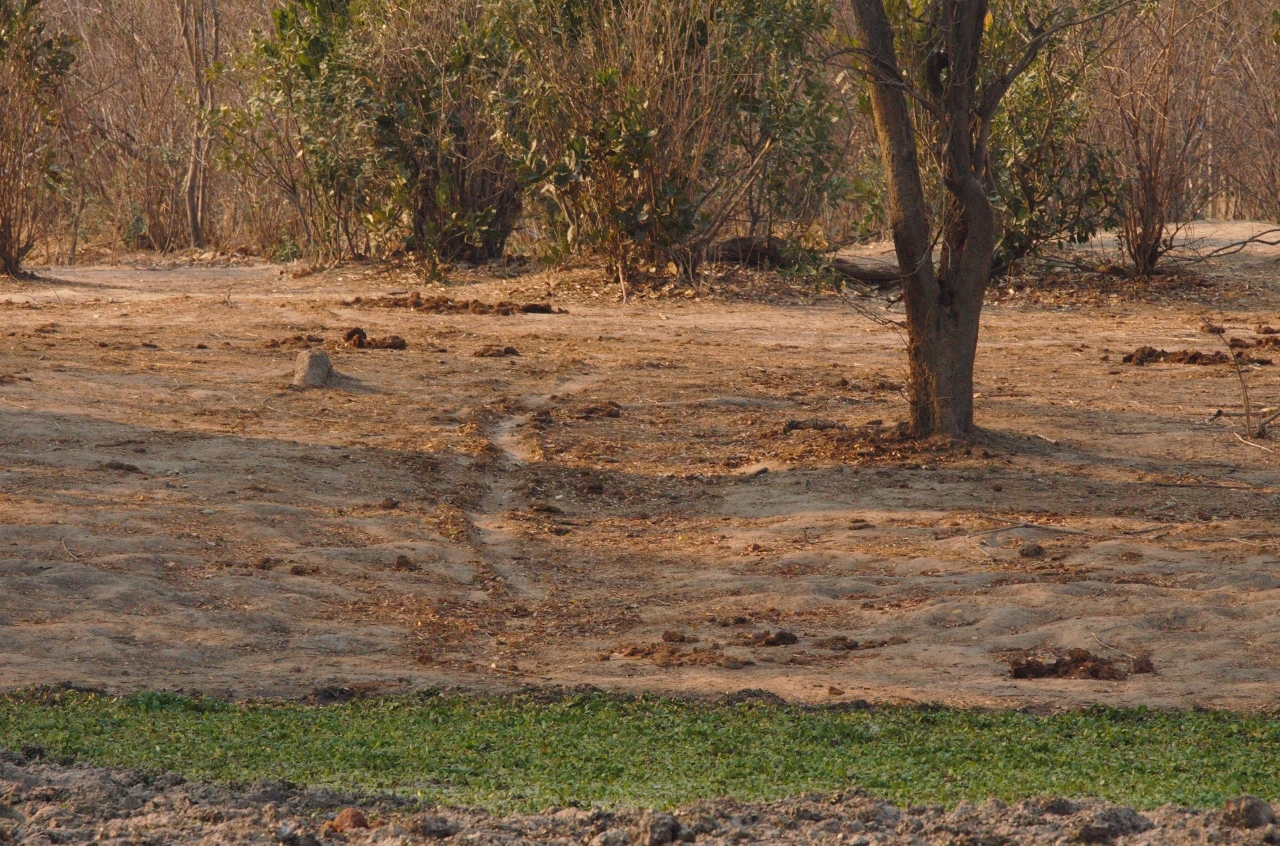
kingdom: Animalia
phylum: Chordata
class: Mammalia
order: Proboscidea
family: Elephantidae
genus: Loxodonta
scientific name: Loxodonta africana
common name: African elephant
